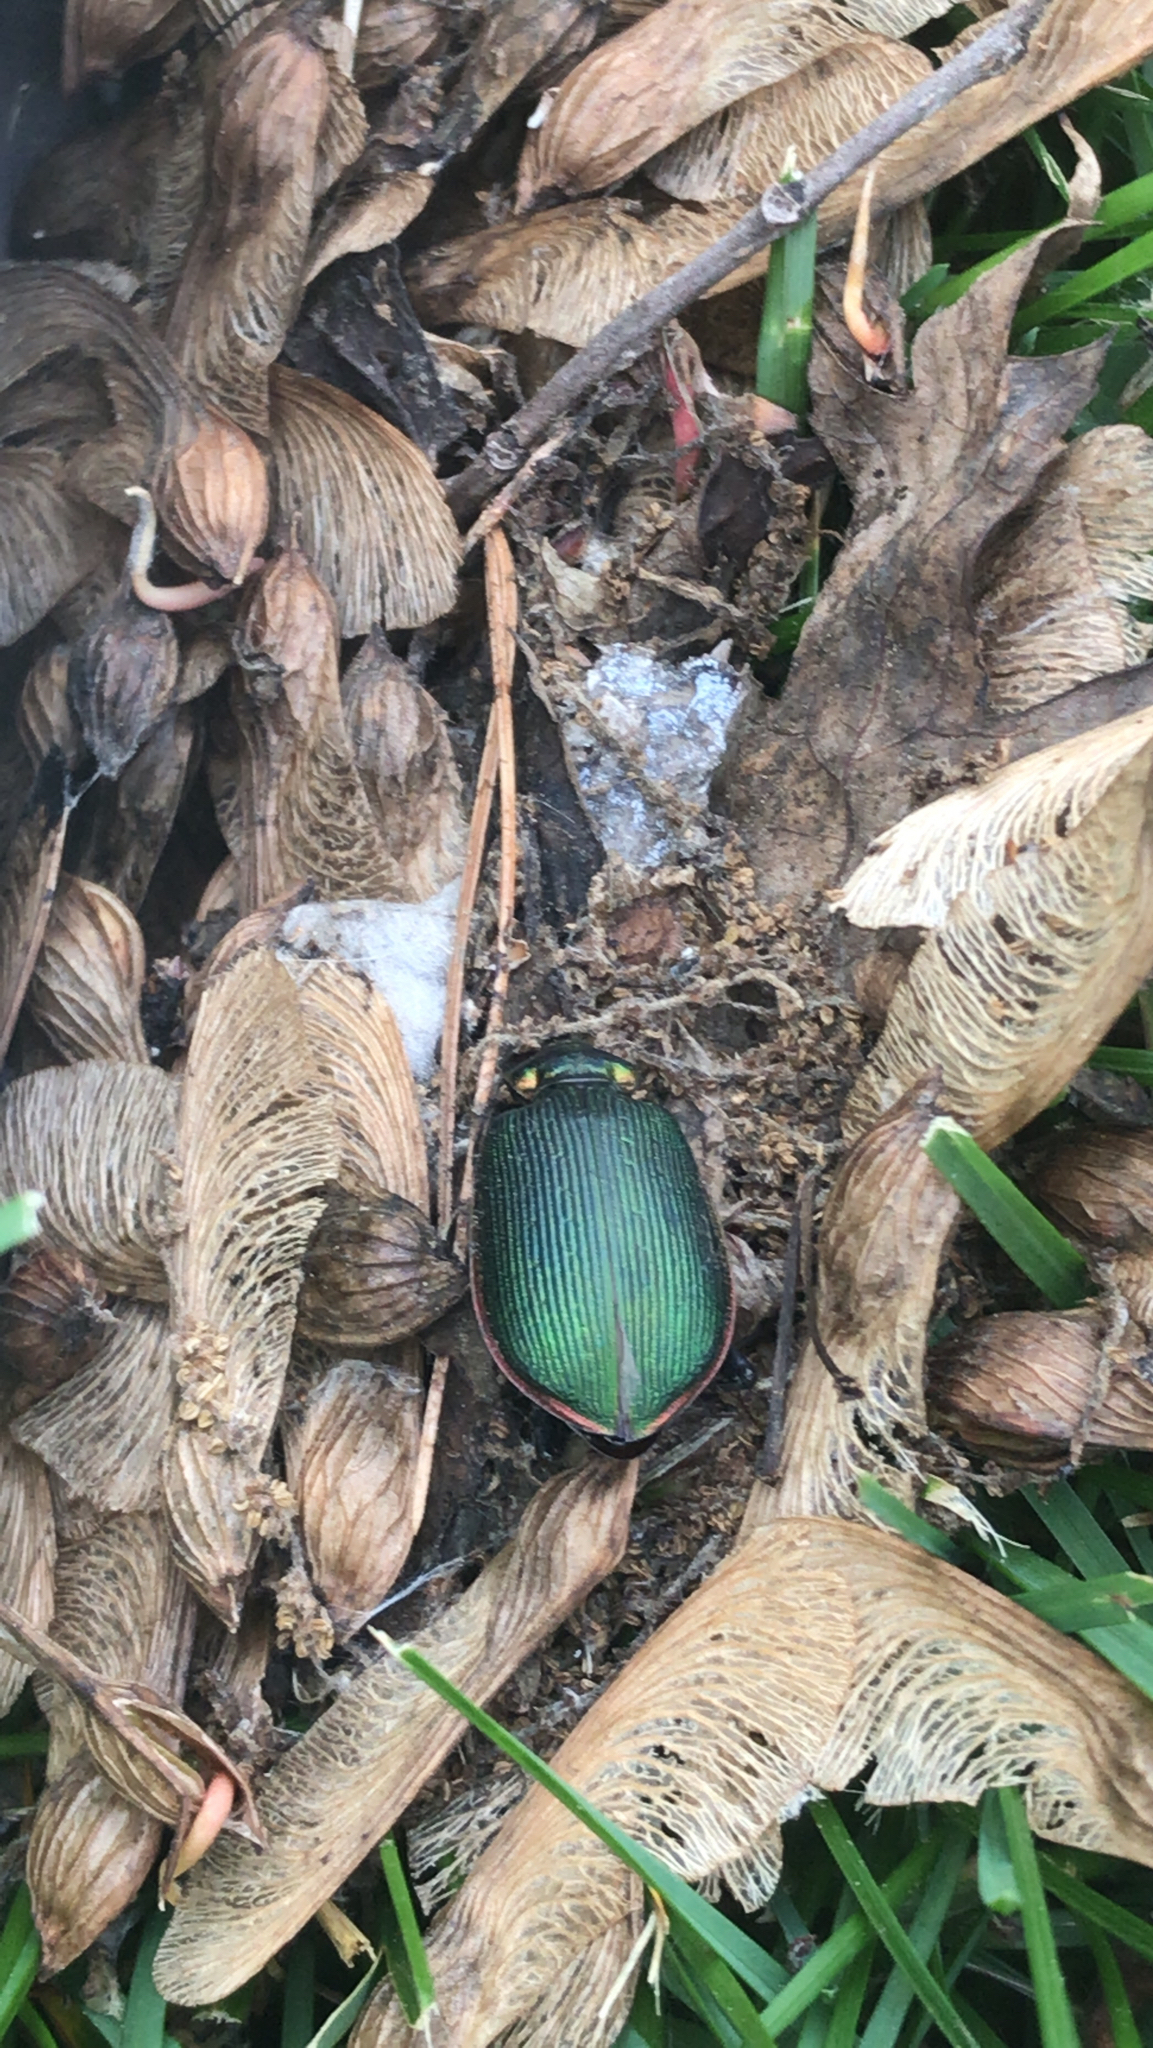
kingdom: Animalia
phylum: Arthropoda
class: Insecta
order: Coleoptera
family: Carabidae
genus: Calosoma
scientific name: Calosoma scrutator
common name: Fiery searcher beetle
